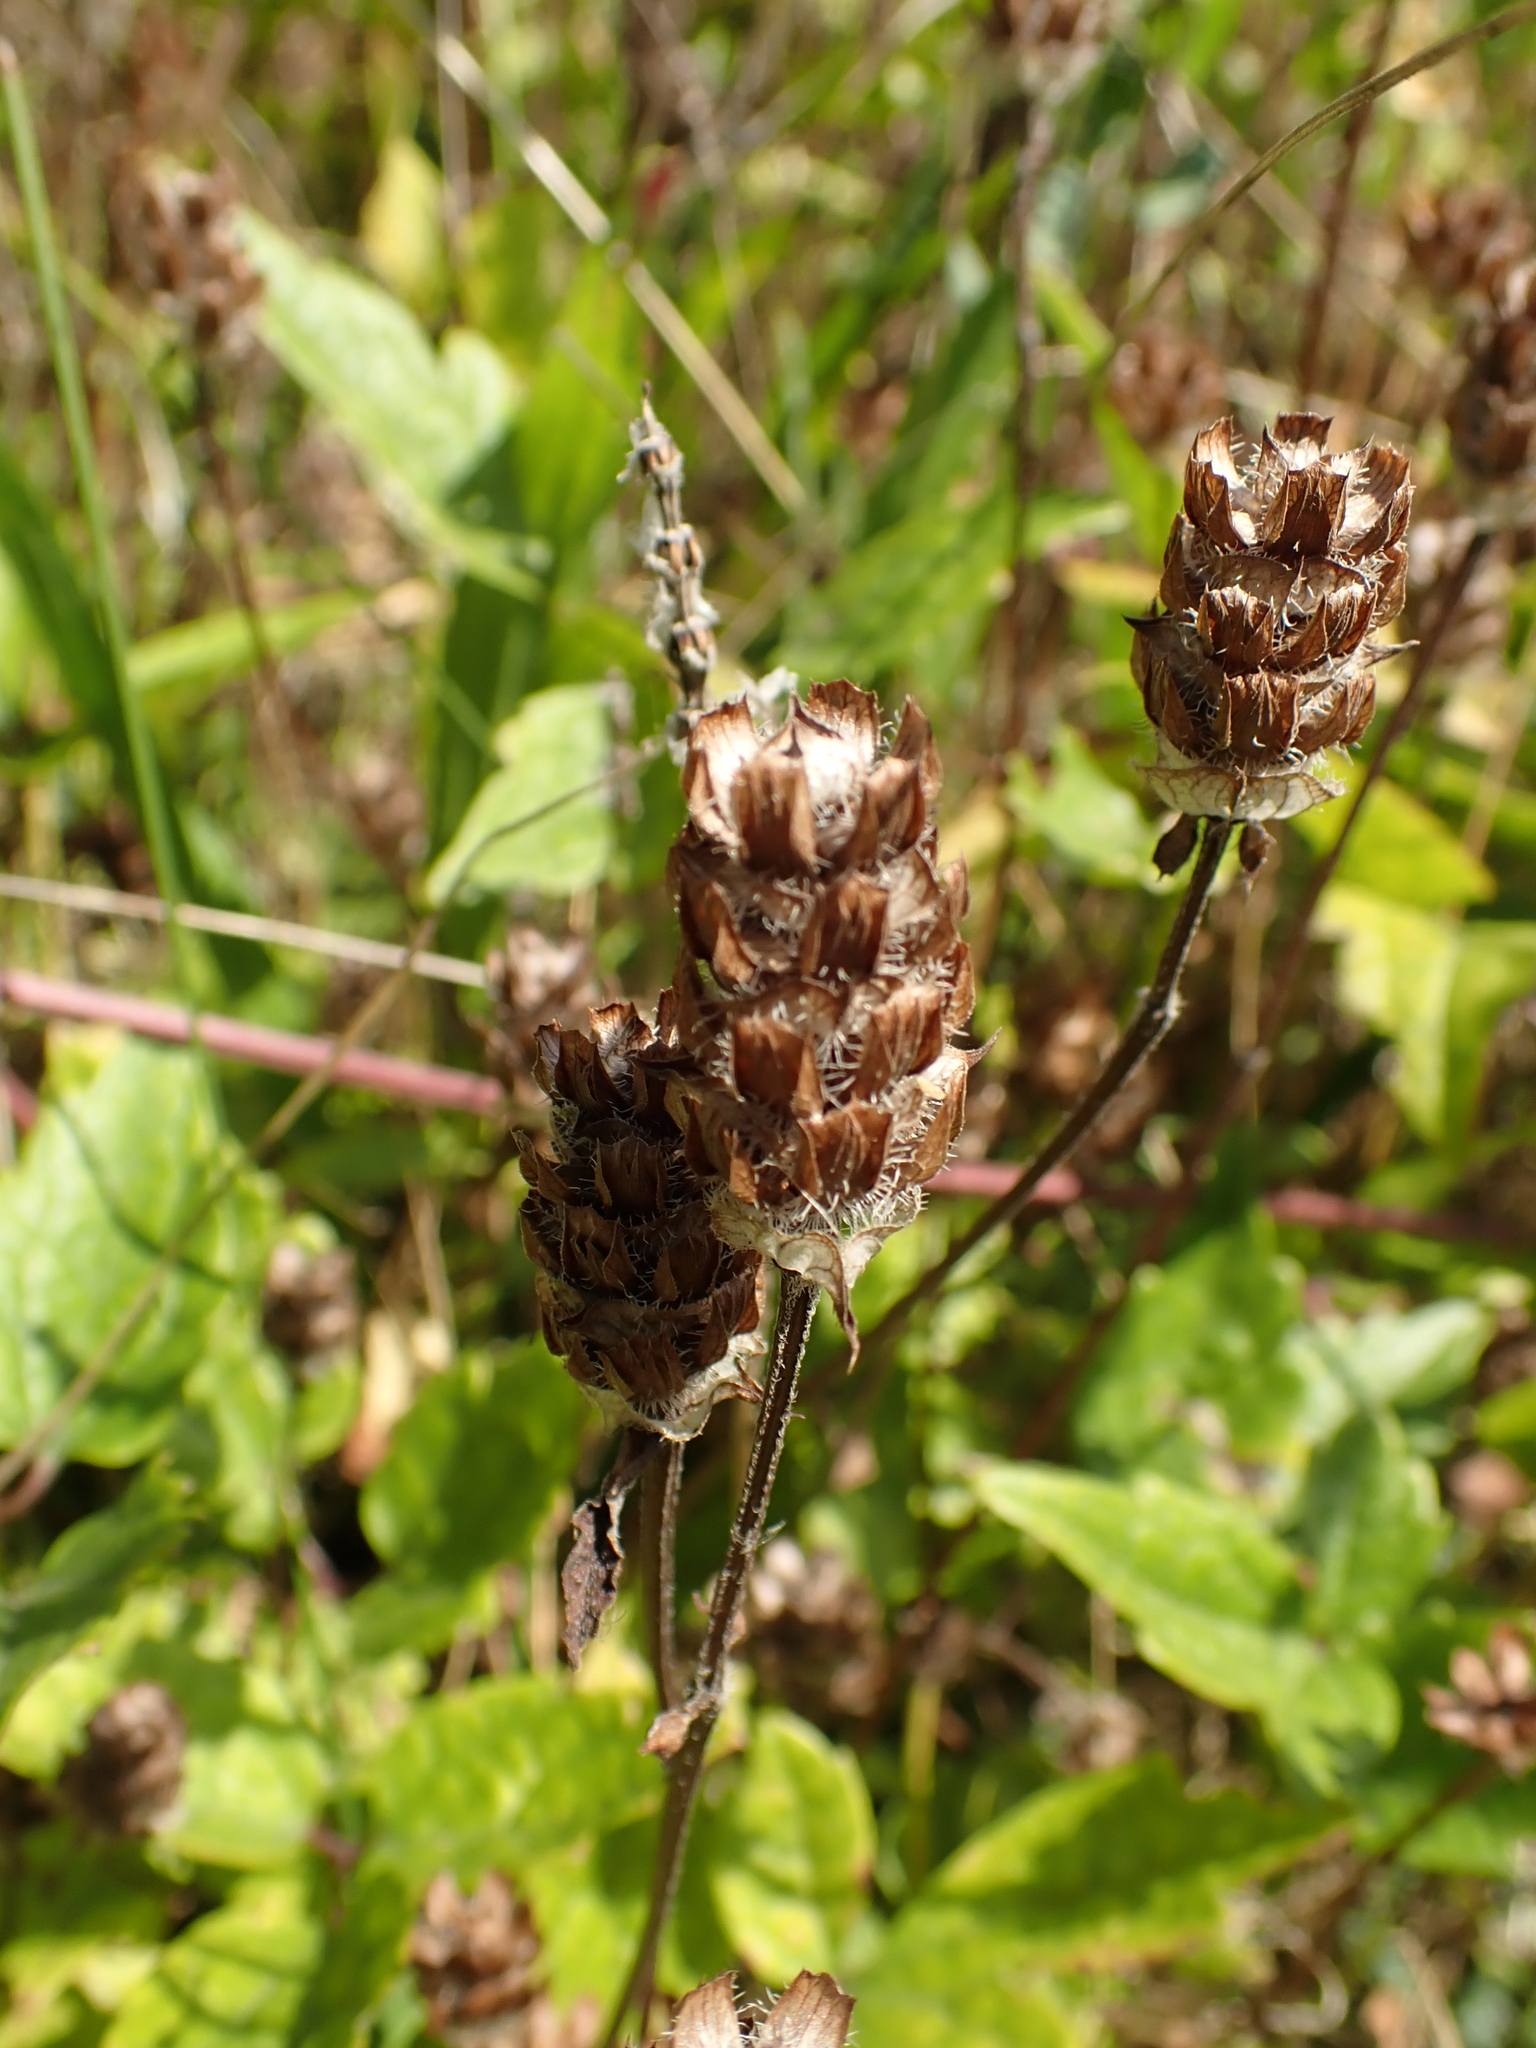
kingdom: Plantae
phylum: Tracheophyta
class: Magnoliopsida
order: Lamiales
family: Lamiaceae
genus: Prunella
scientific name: Prunella vulgaris
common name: Heal-all
